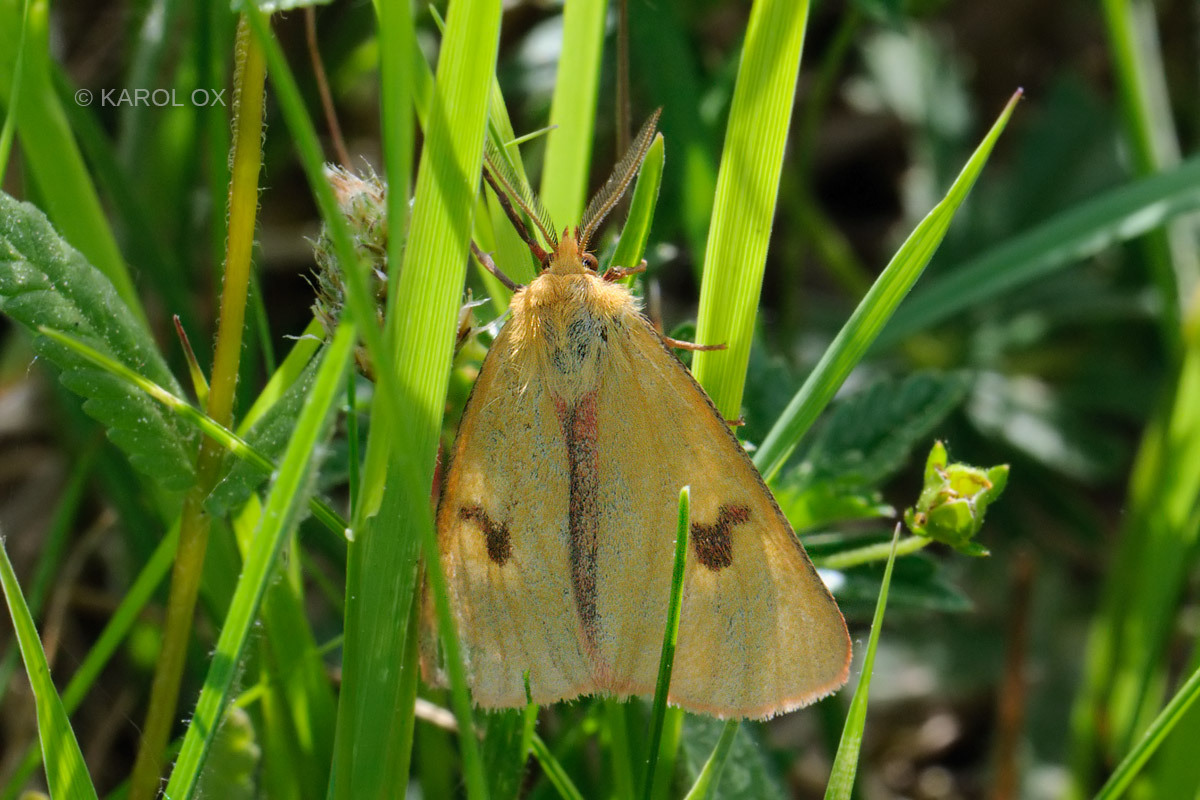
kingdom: Animalia
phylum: Arthropoda
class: Insecta
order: Lepidoptera
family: Erebidae
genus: Diacrisia
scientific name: Diacrisia sannio
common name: Clouded buff
